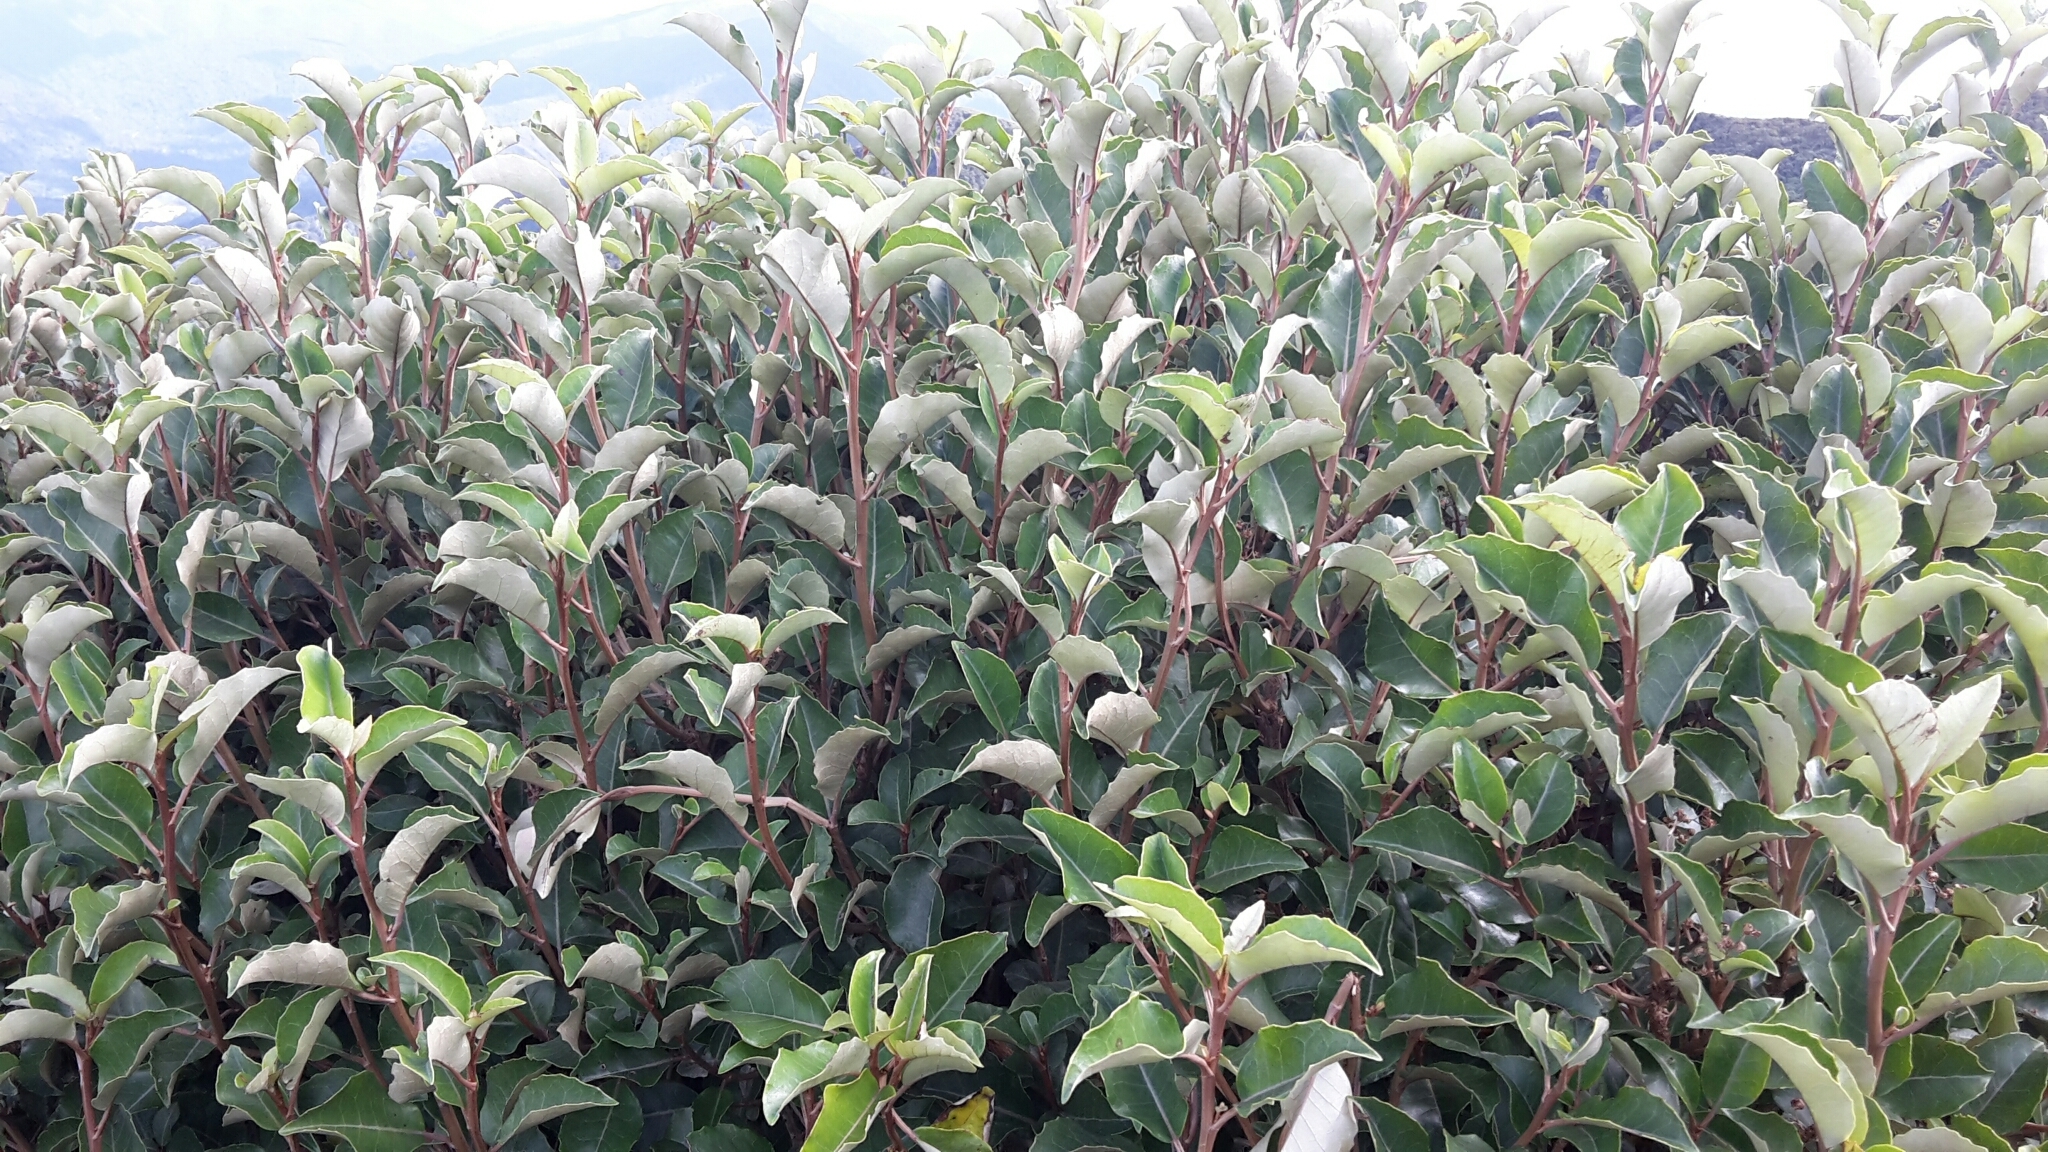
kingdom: Plantae
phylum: Tracheophyta
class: Magnoliopsida
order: Asterales
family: Asteraceae
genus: Olearia
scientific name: Olearia arborescens
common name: Glossy tree daisy
